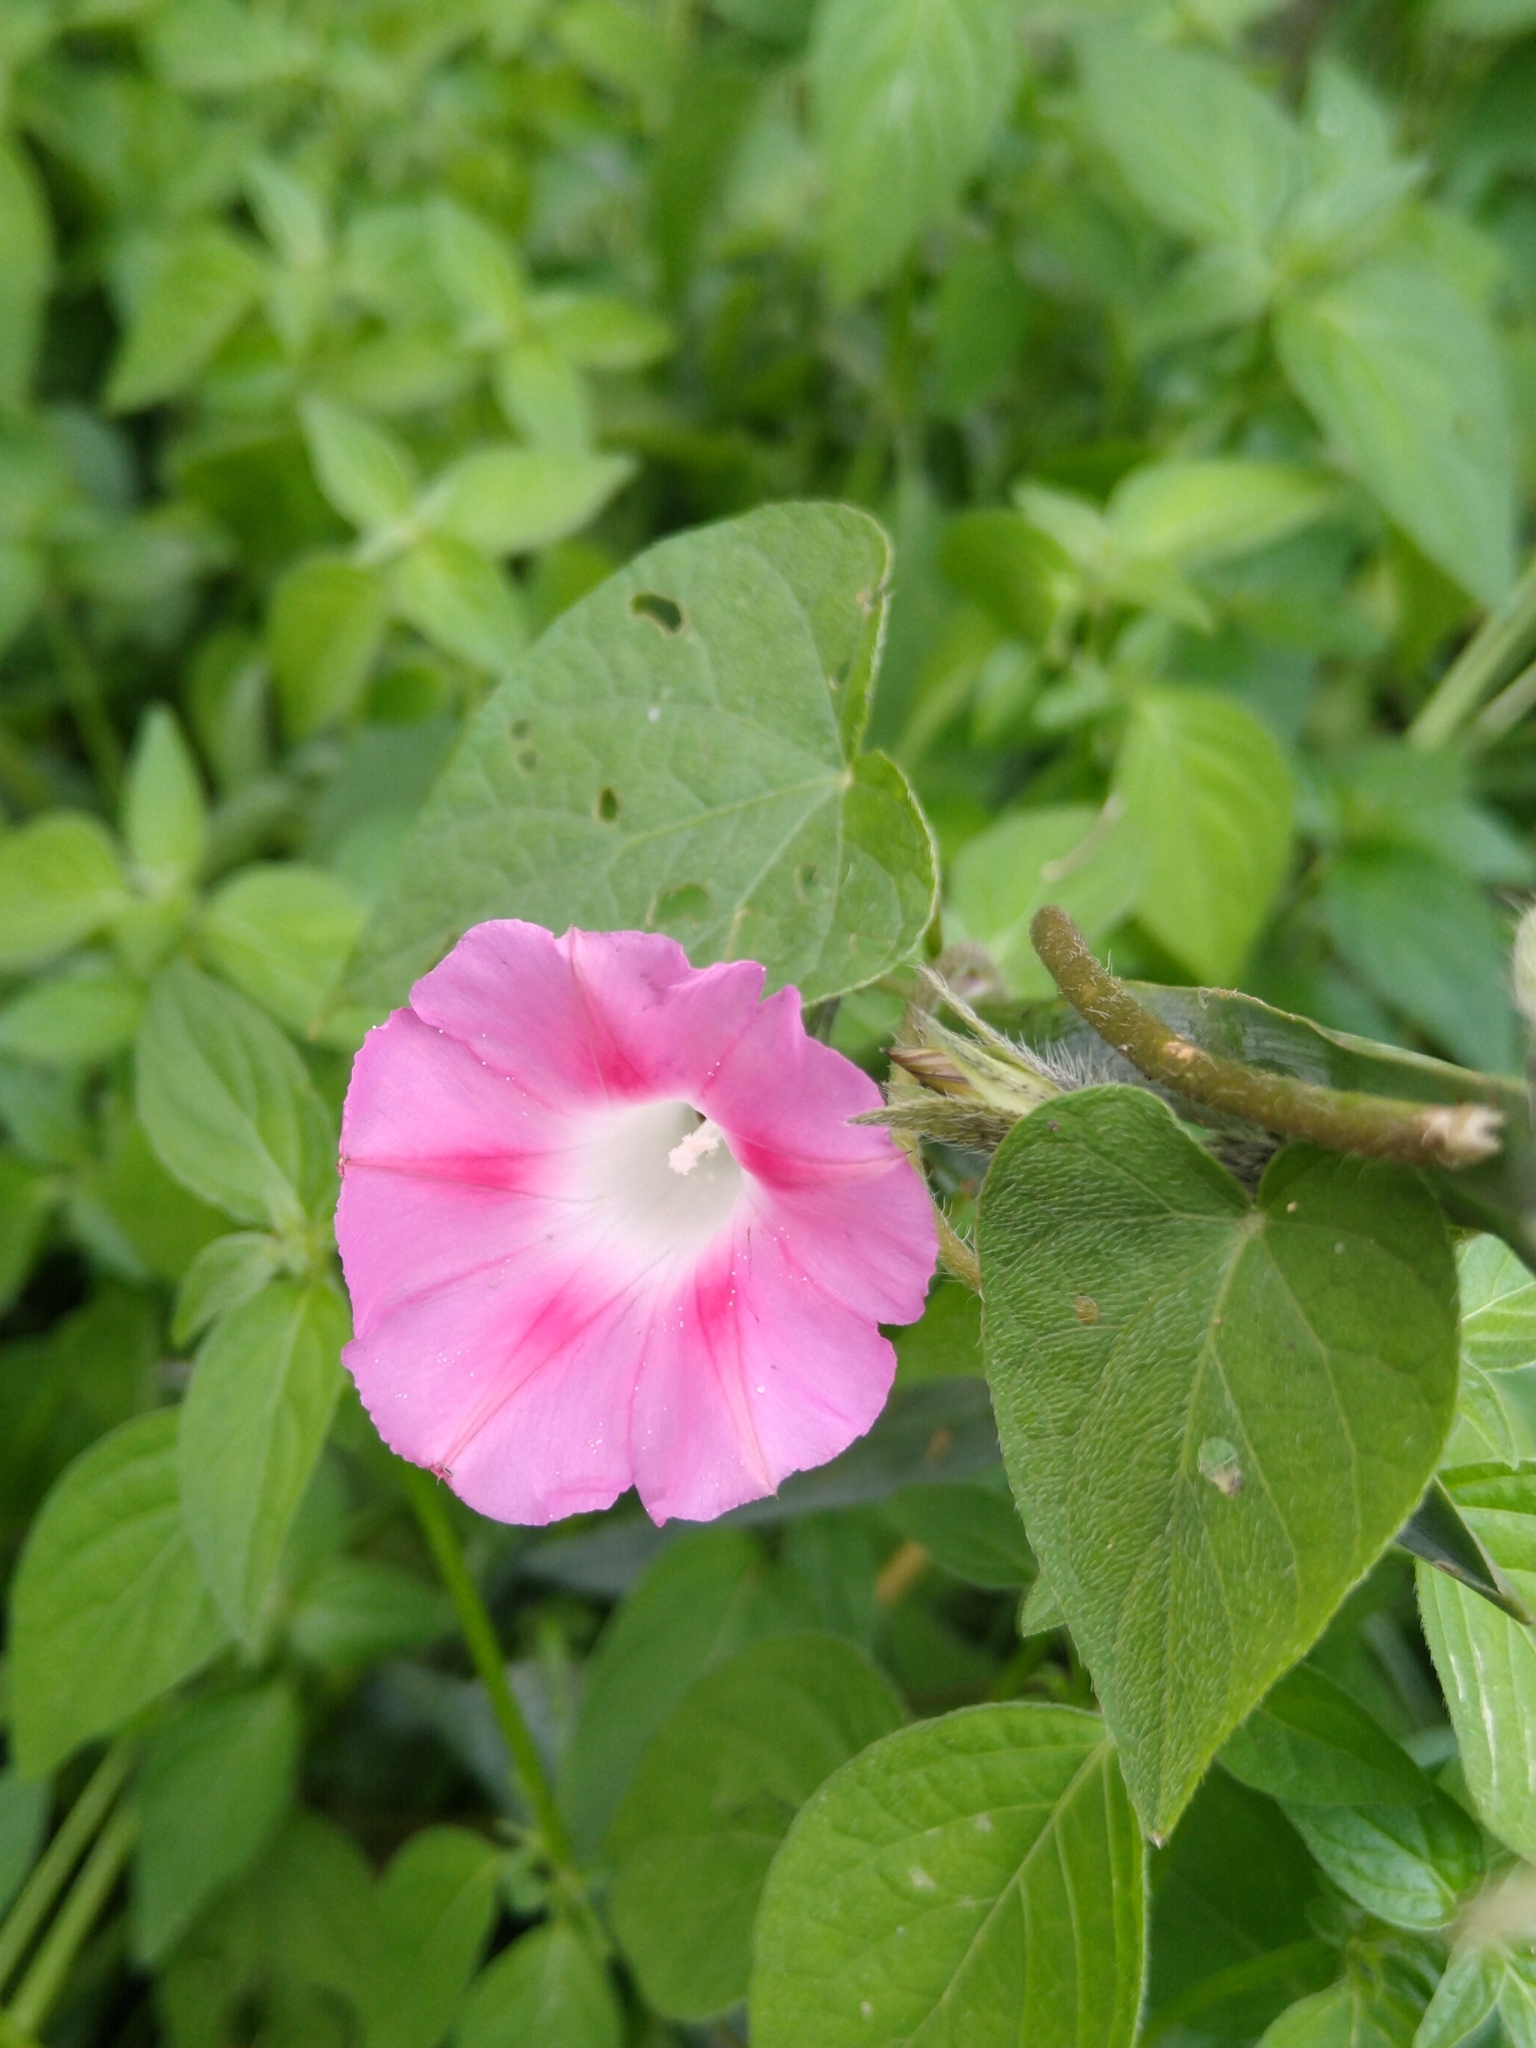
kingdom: Plantae
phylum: Tracheophyta
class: Magnoliopsida
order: Solanales
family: Convolvulaceae
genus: Ipomoea
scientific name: Ipomoea purpurea
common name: Common morning-glory
